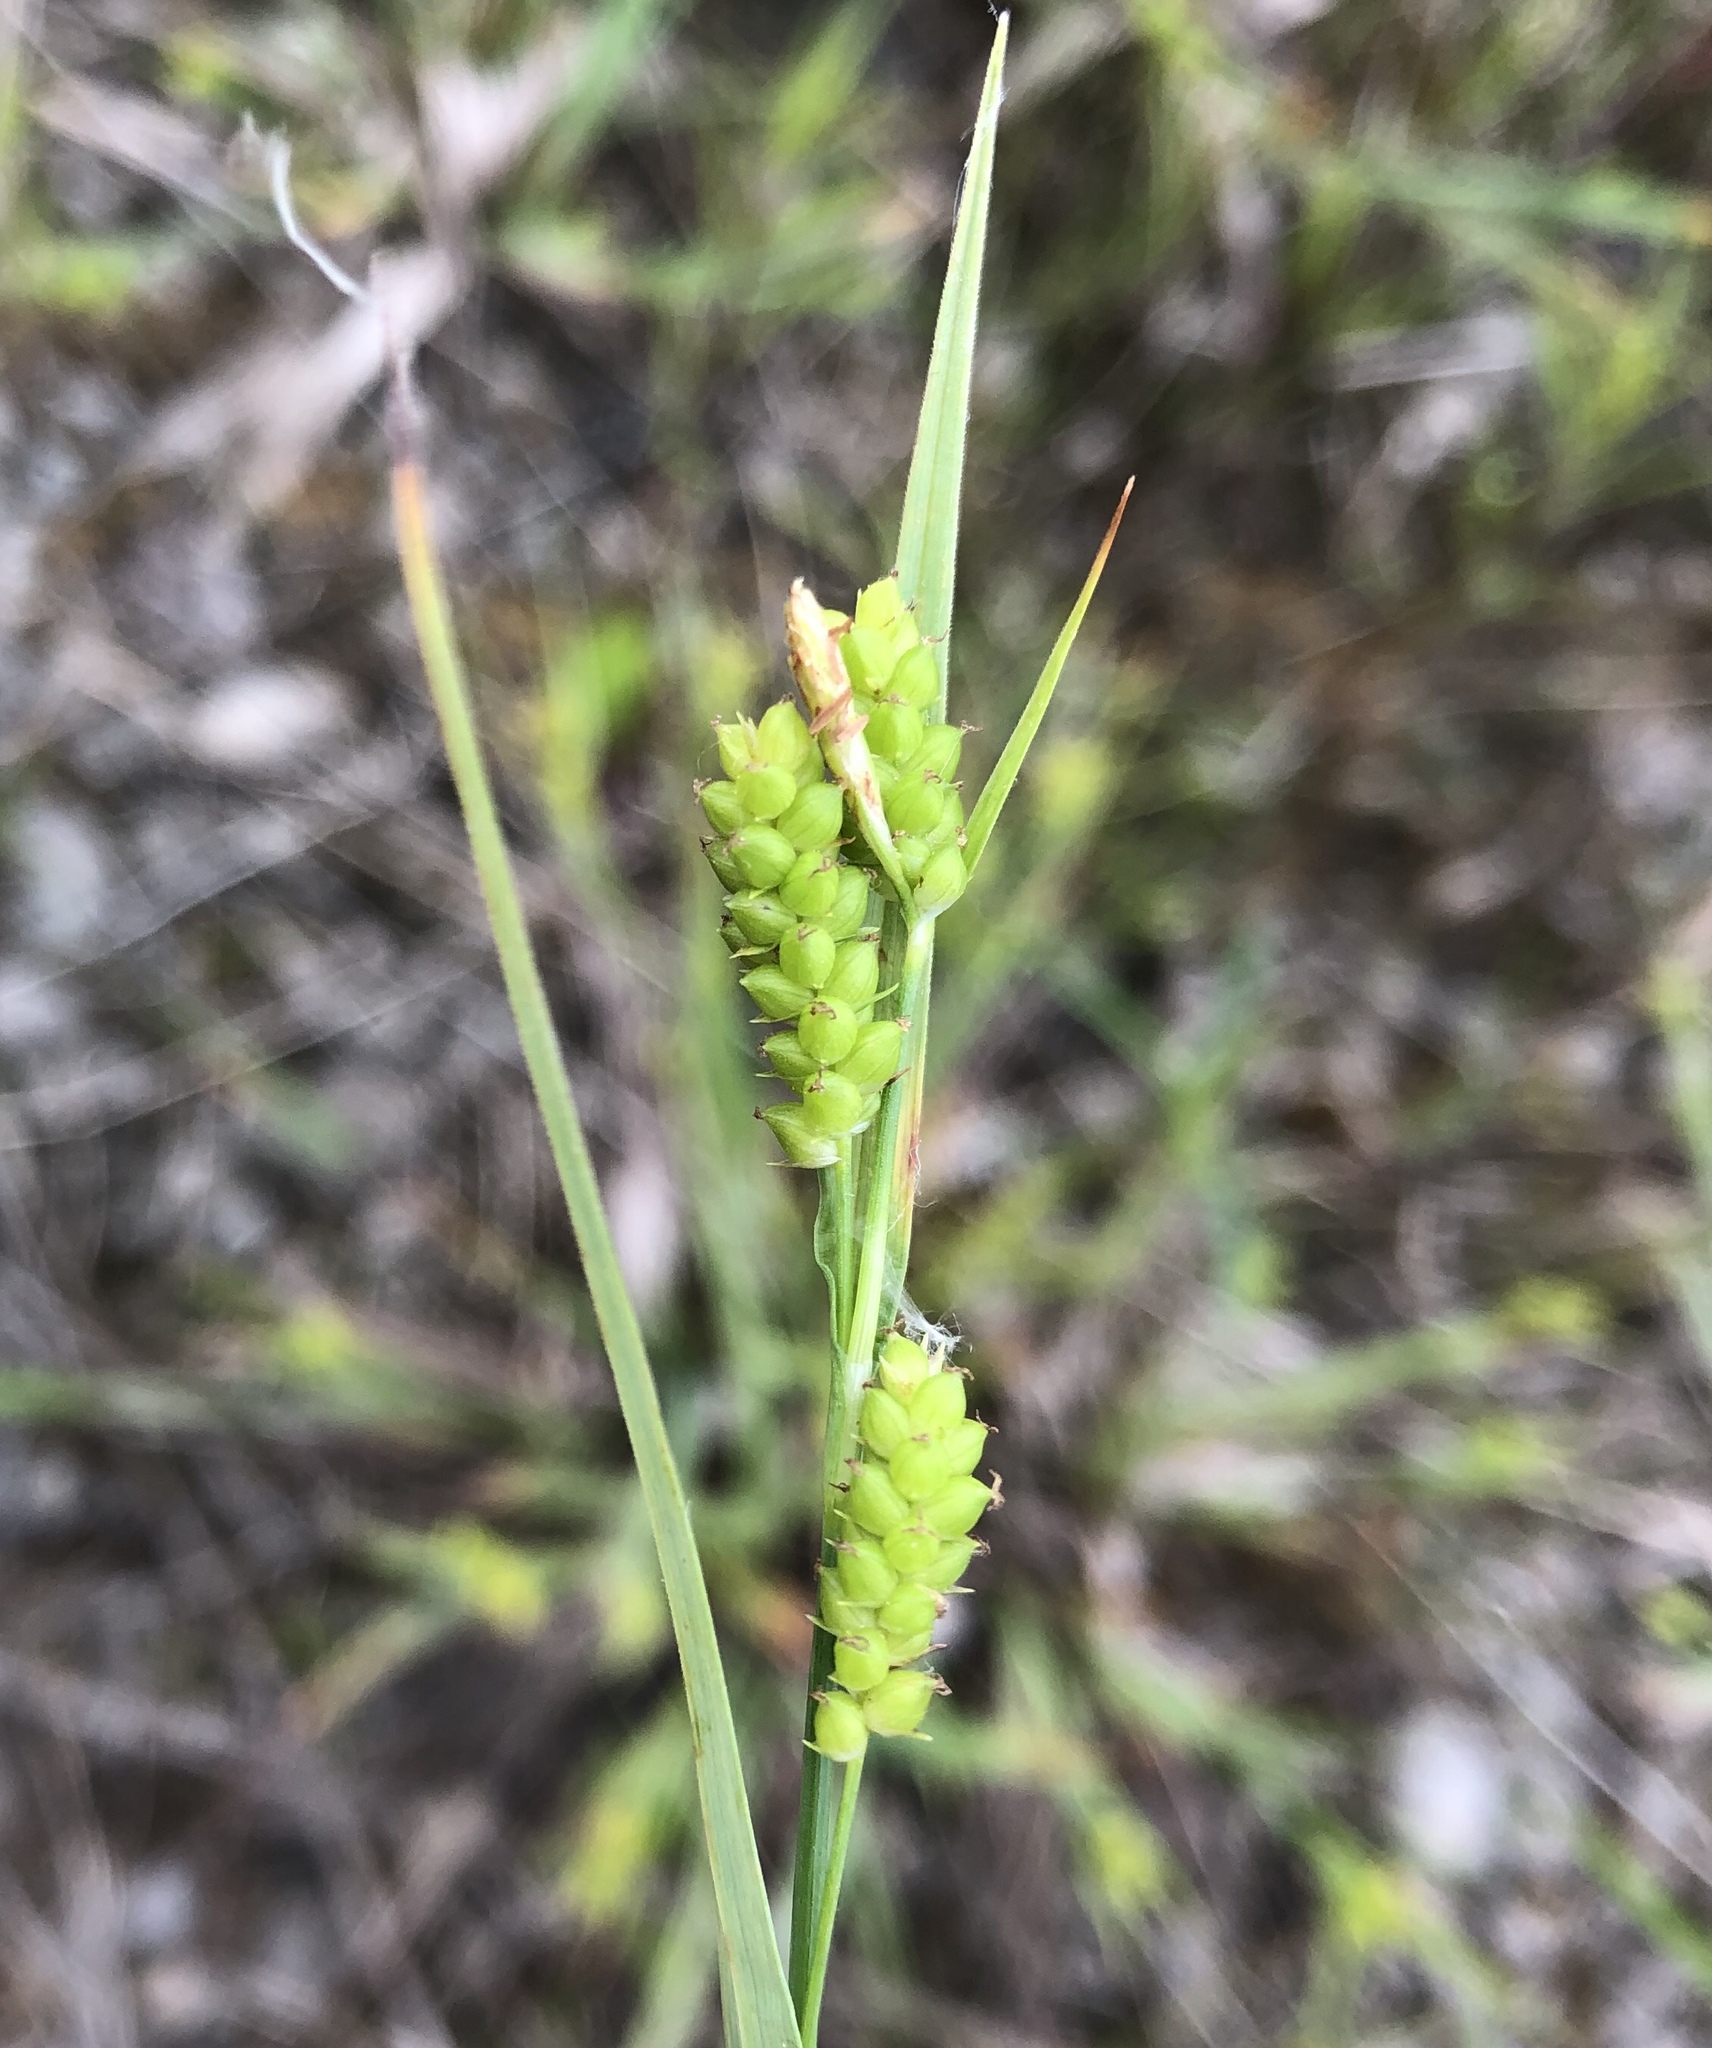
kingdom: Plantae
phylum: Tracheophyta
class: Liliopsida
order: Poales
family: Cyperaceae
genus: Carex
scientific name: Carex granularis
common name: Granular sedge
